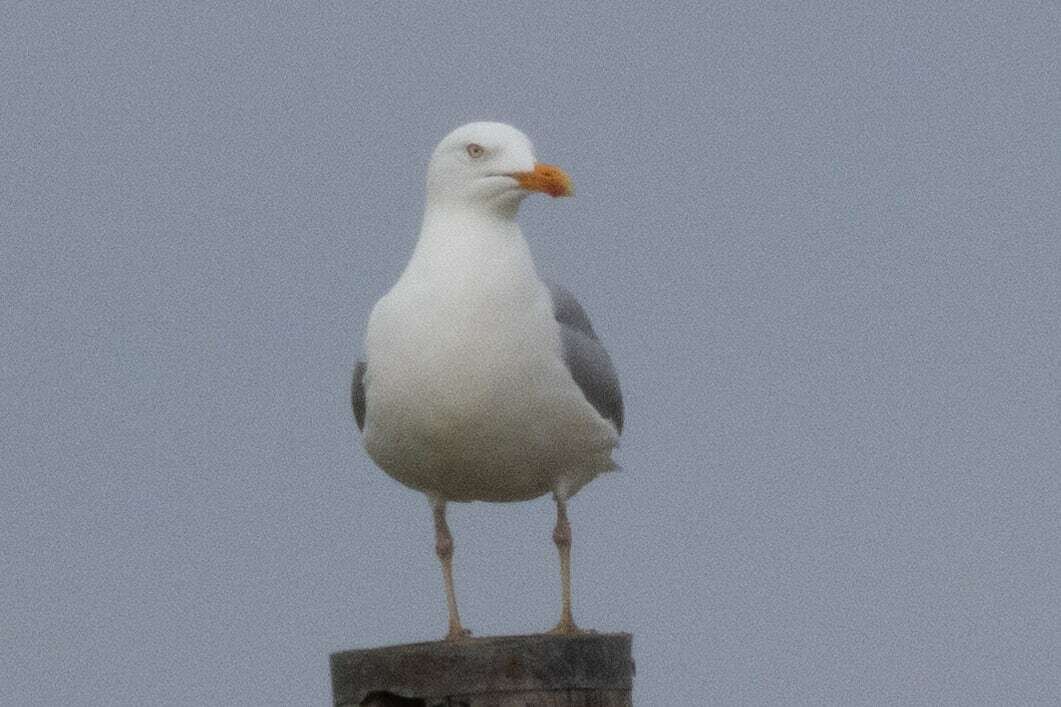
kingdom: Animalia
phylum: Chordata
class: Aves
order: Charadriiformes
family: Laridae
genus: Larus
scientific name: Larus argentatus
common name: Herring gull
